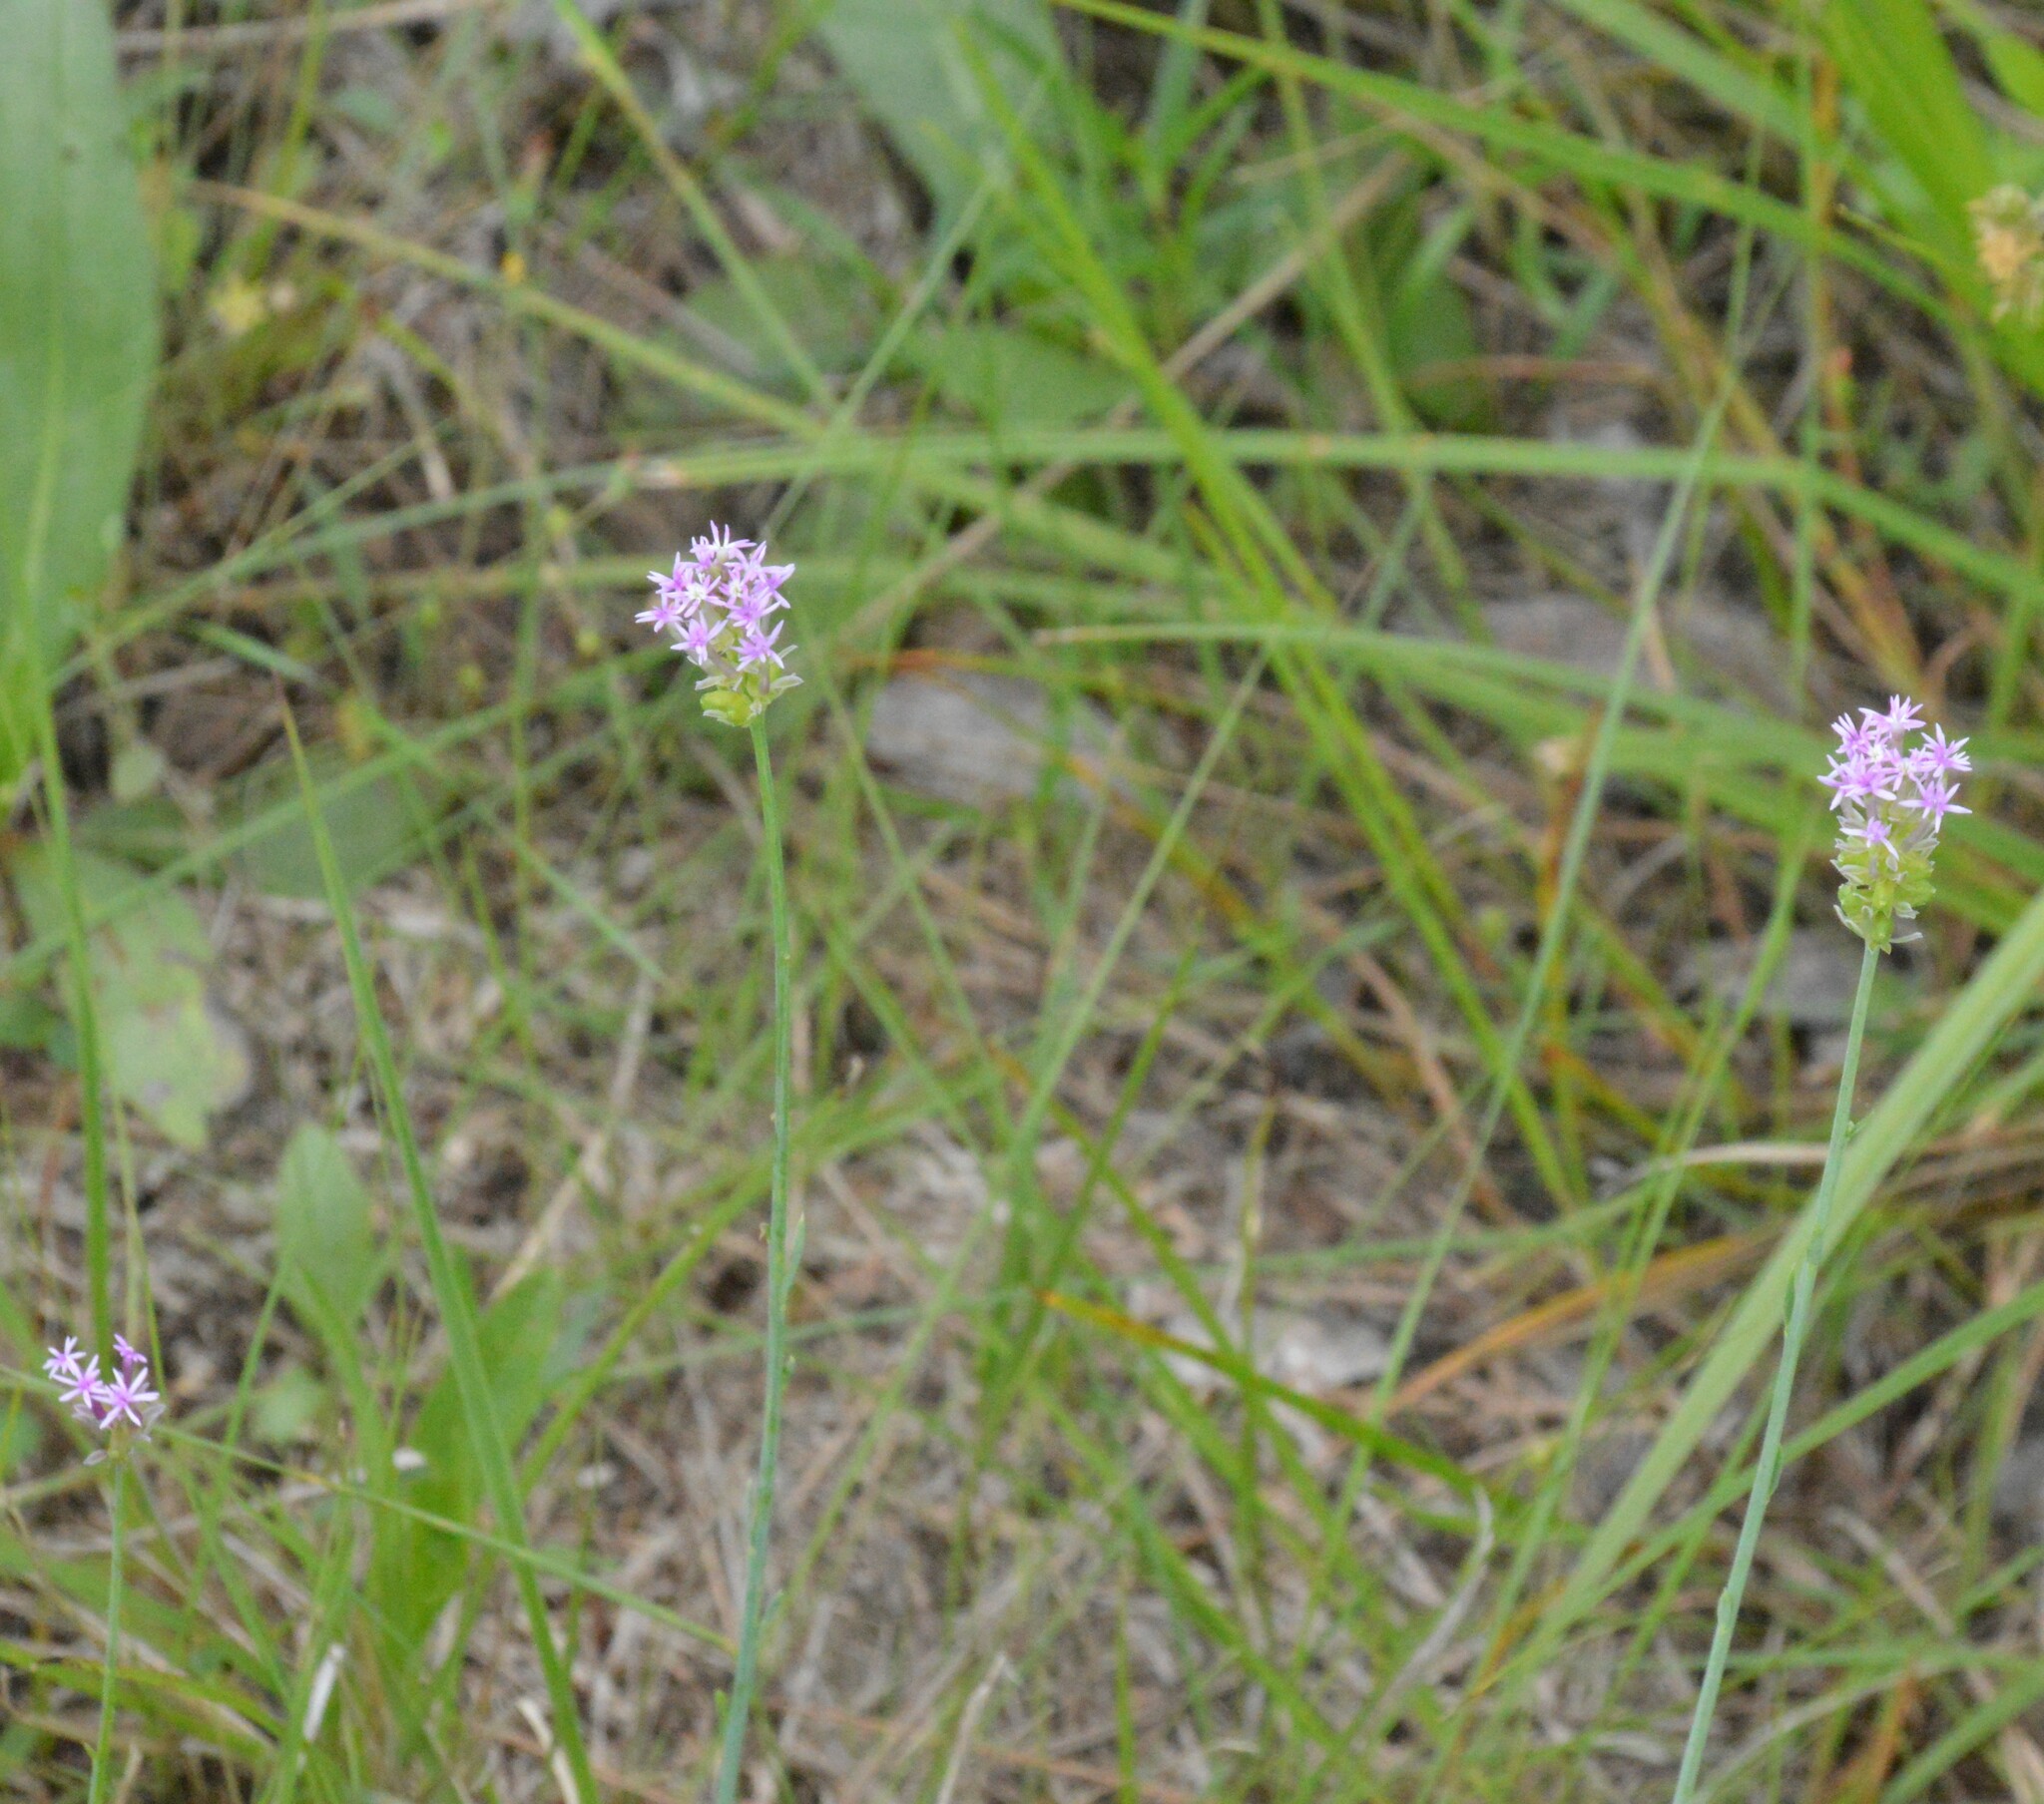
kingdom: Plantae
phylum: Tracheophyta
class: Magnoliopsida
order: Fabales
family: Polygalaceae
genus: Polygala
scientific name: Polygala incarnata
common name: Pink milkwort
